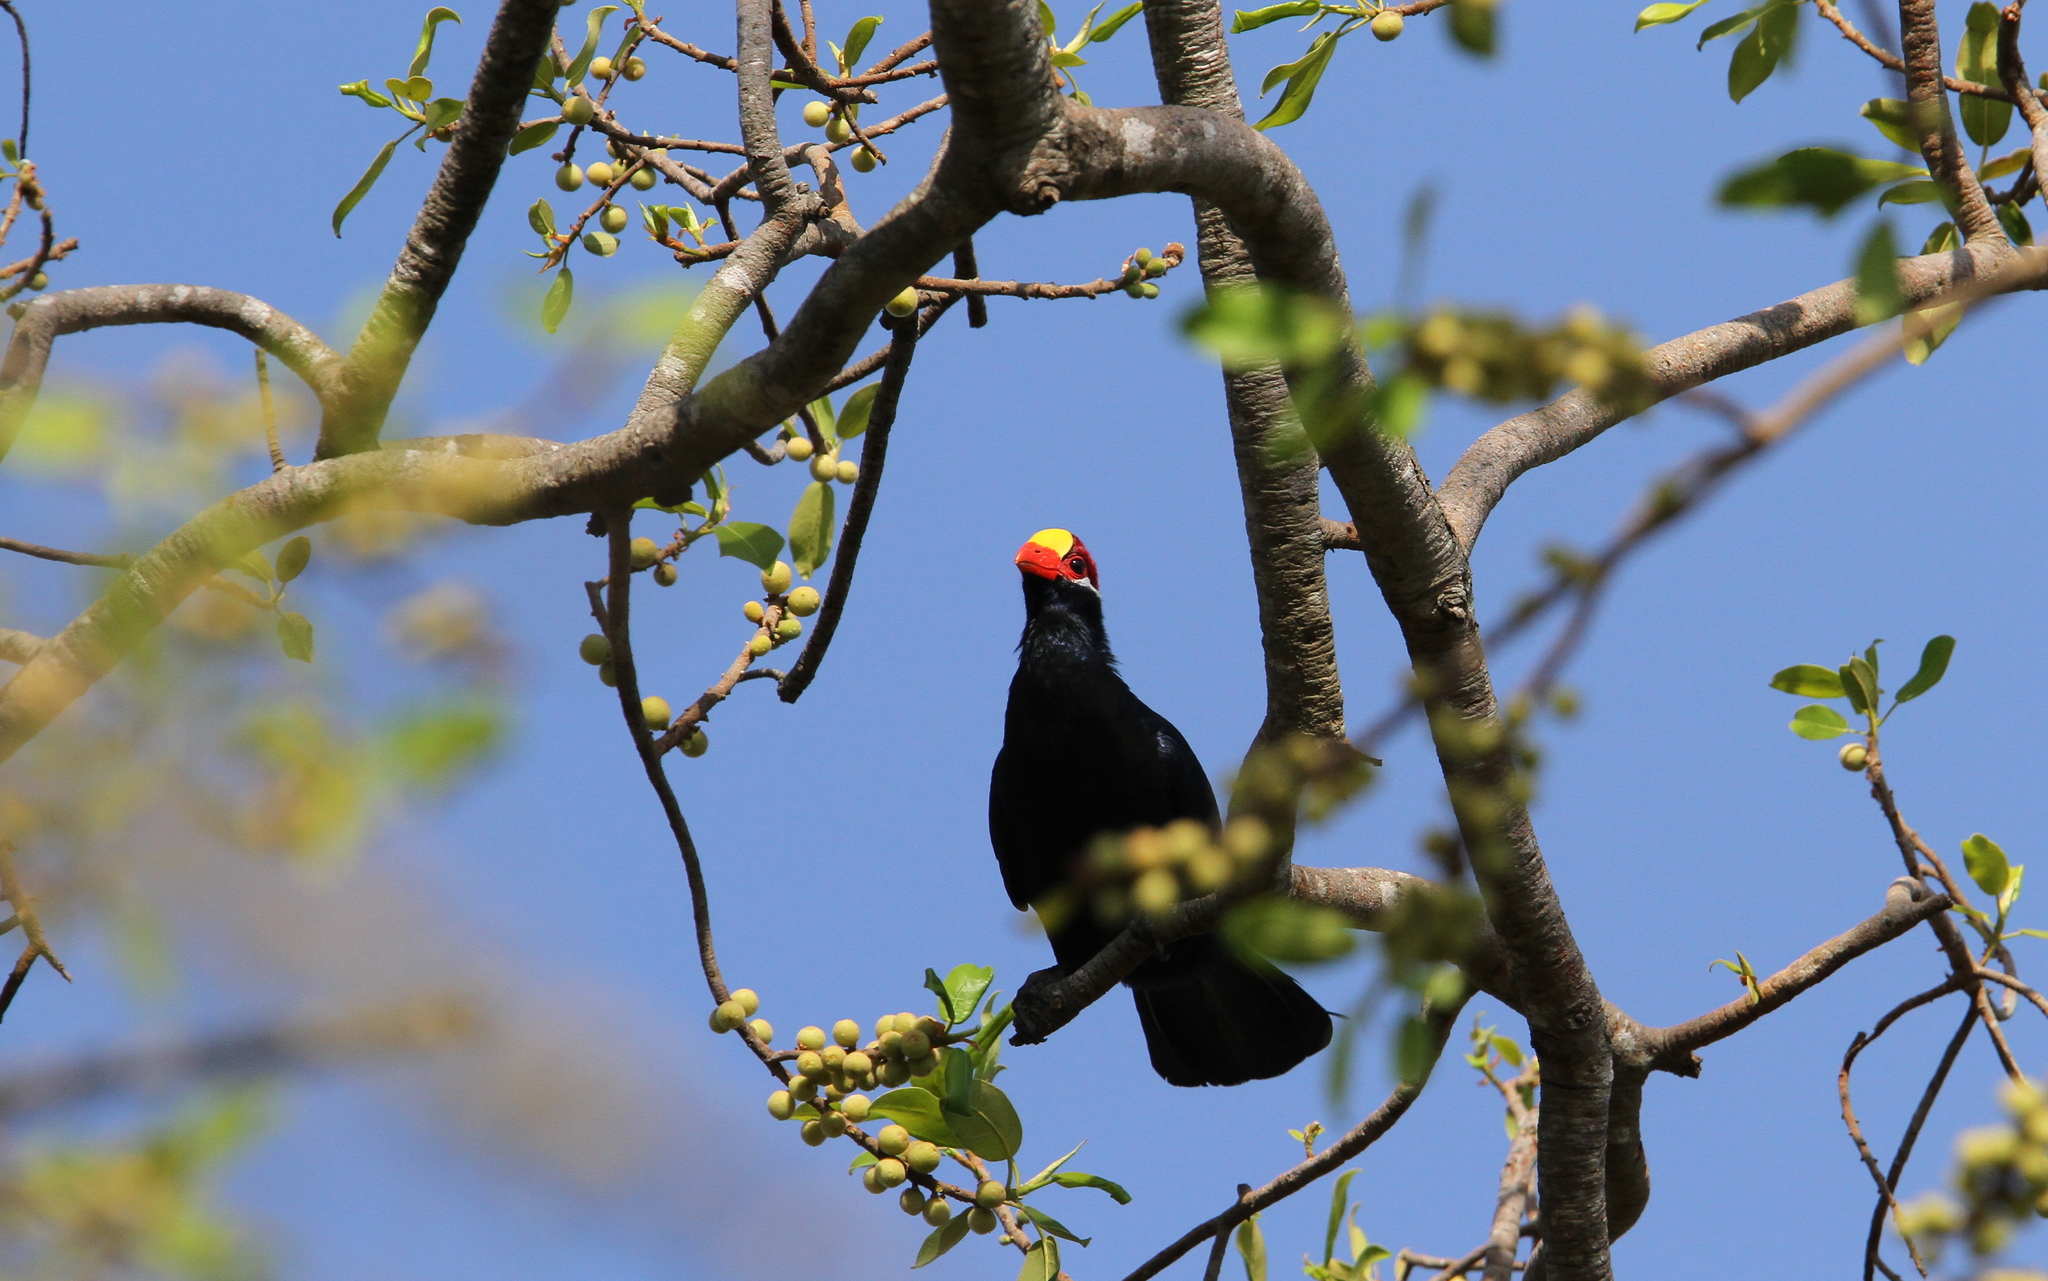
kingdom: Animalia
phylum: Chordata
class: Aves
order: Musophagiformes
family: Musophagidae
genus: Musophaga
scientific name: Musophaga violacea
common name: Violet turaco
